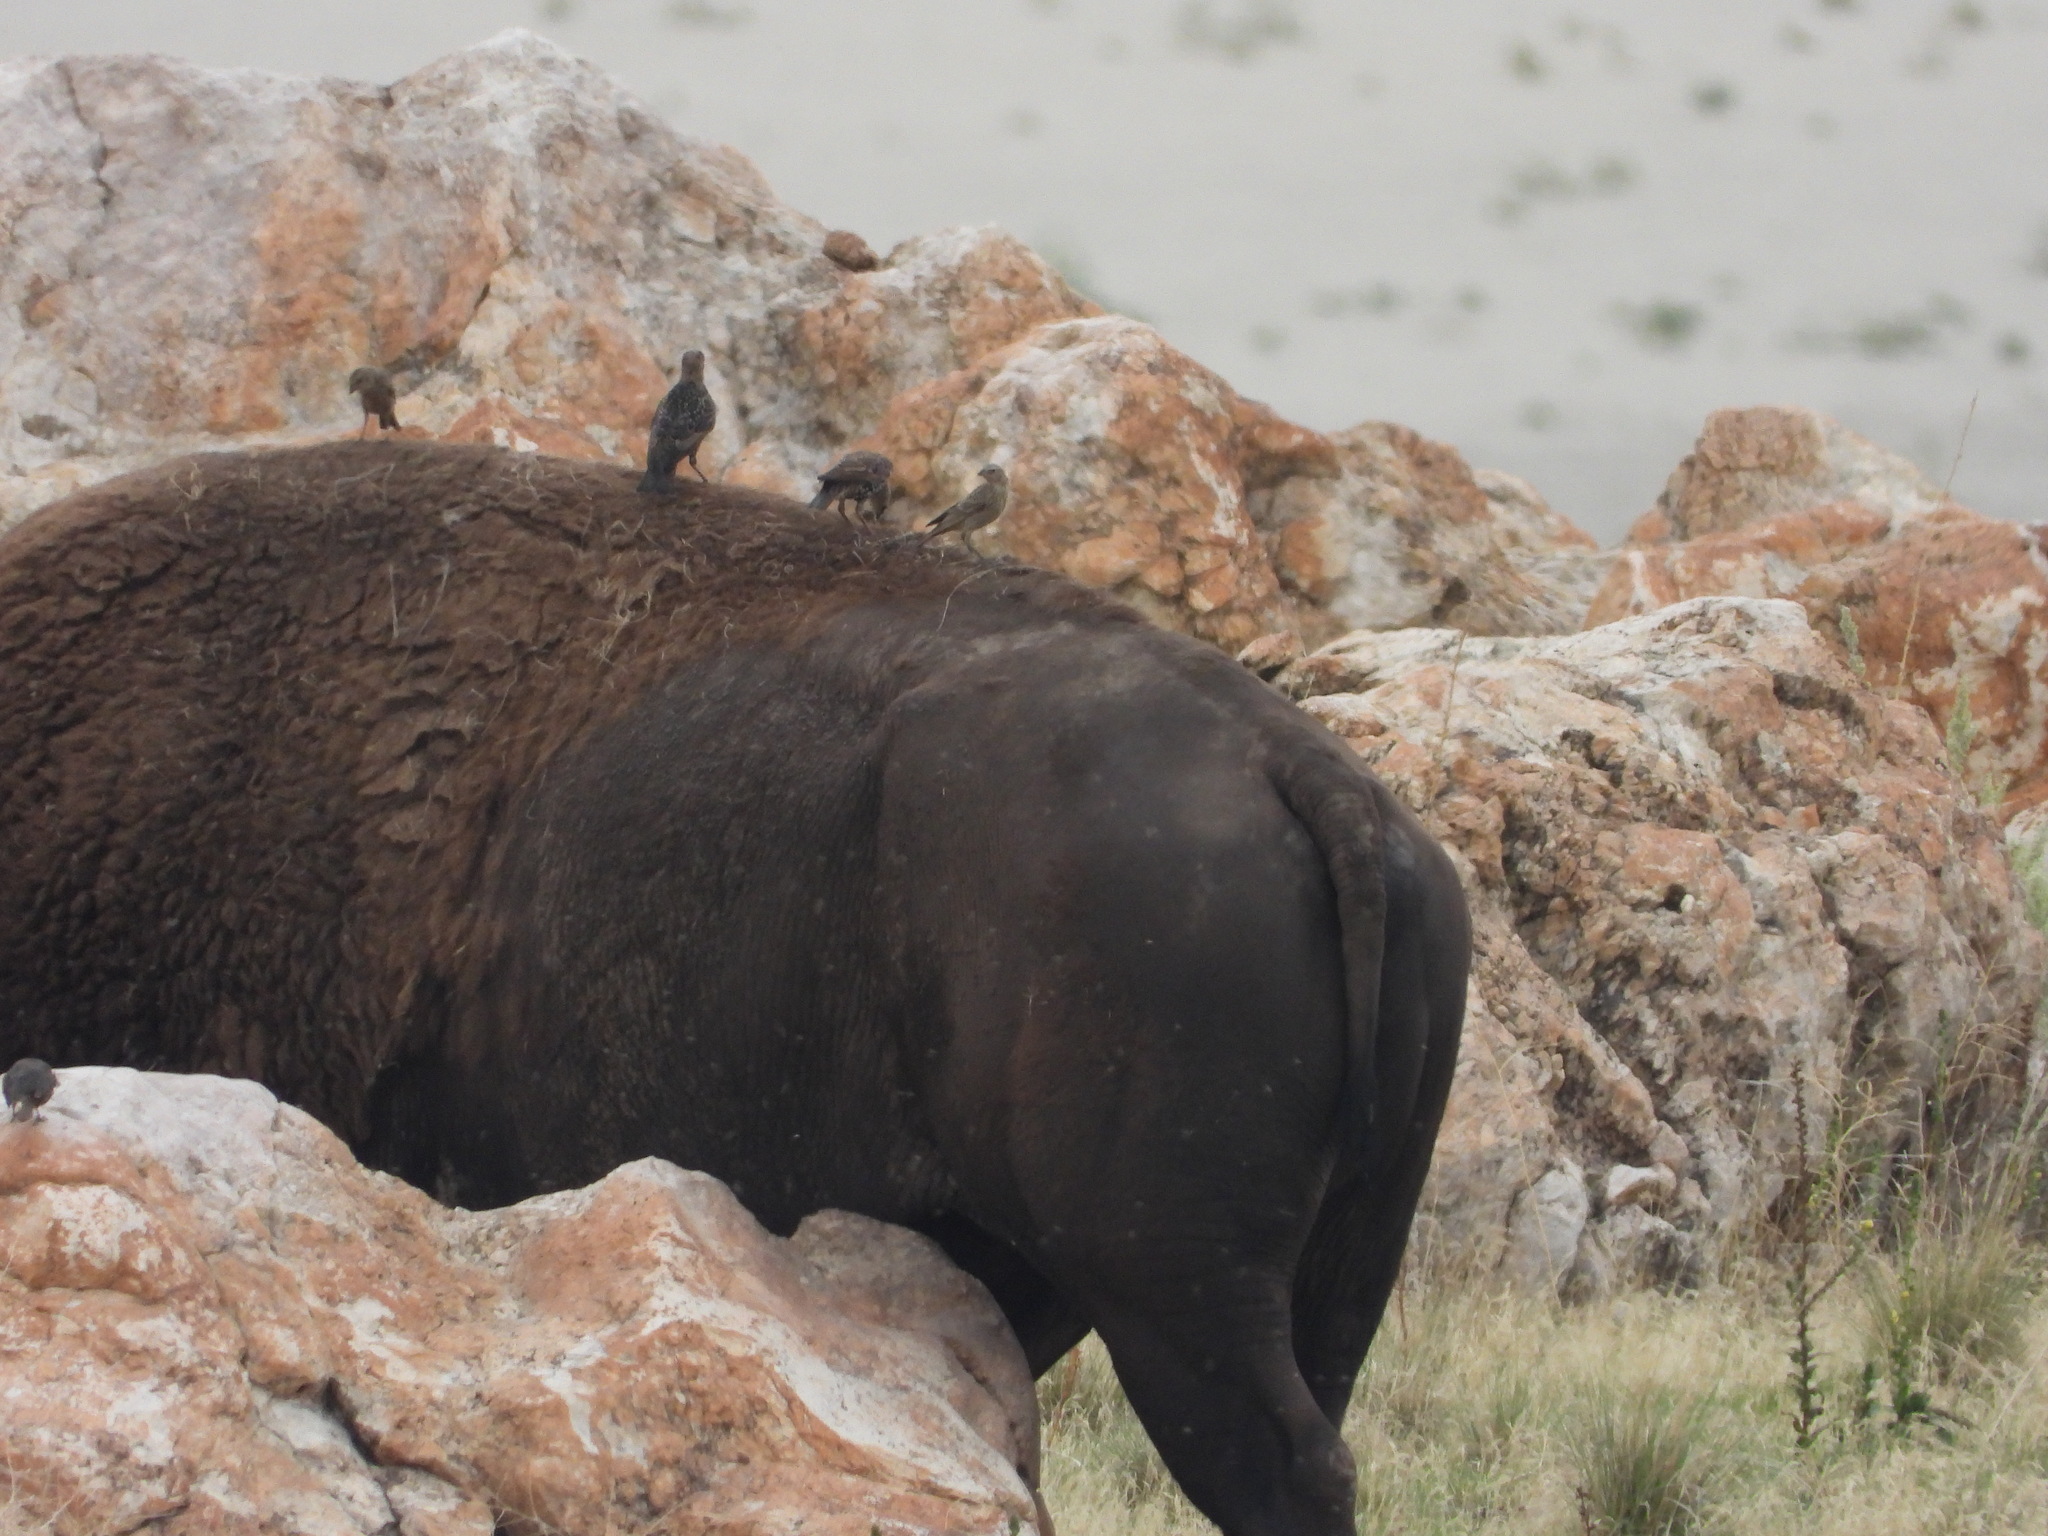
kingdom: Animalia
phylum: Chordata
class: Aves
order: Passeriformes
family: Sturnidae
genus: Sturnus
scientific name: Sturnus vulgaris
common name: Common starling
